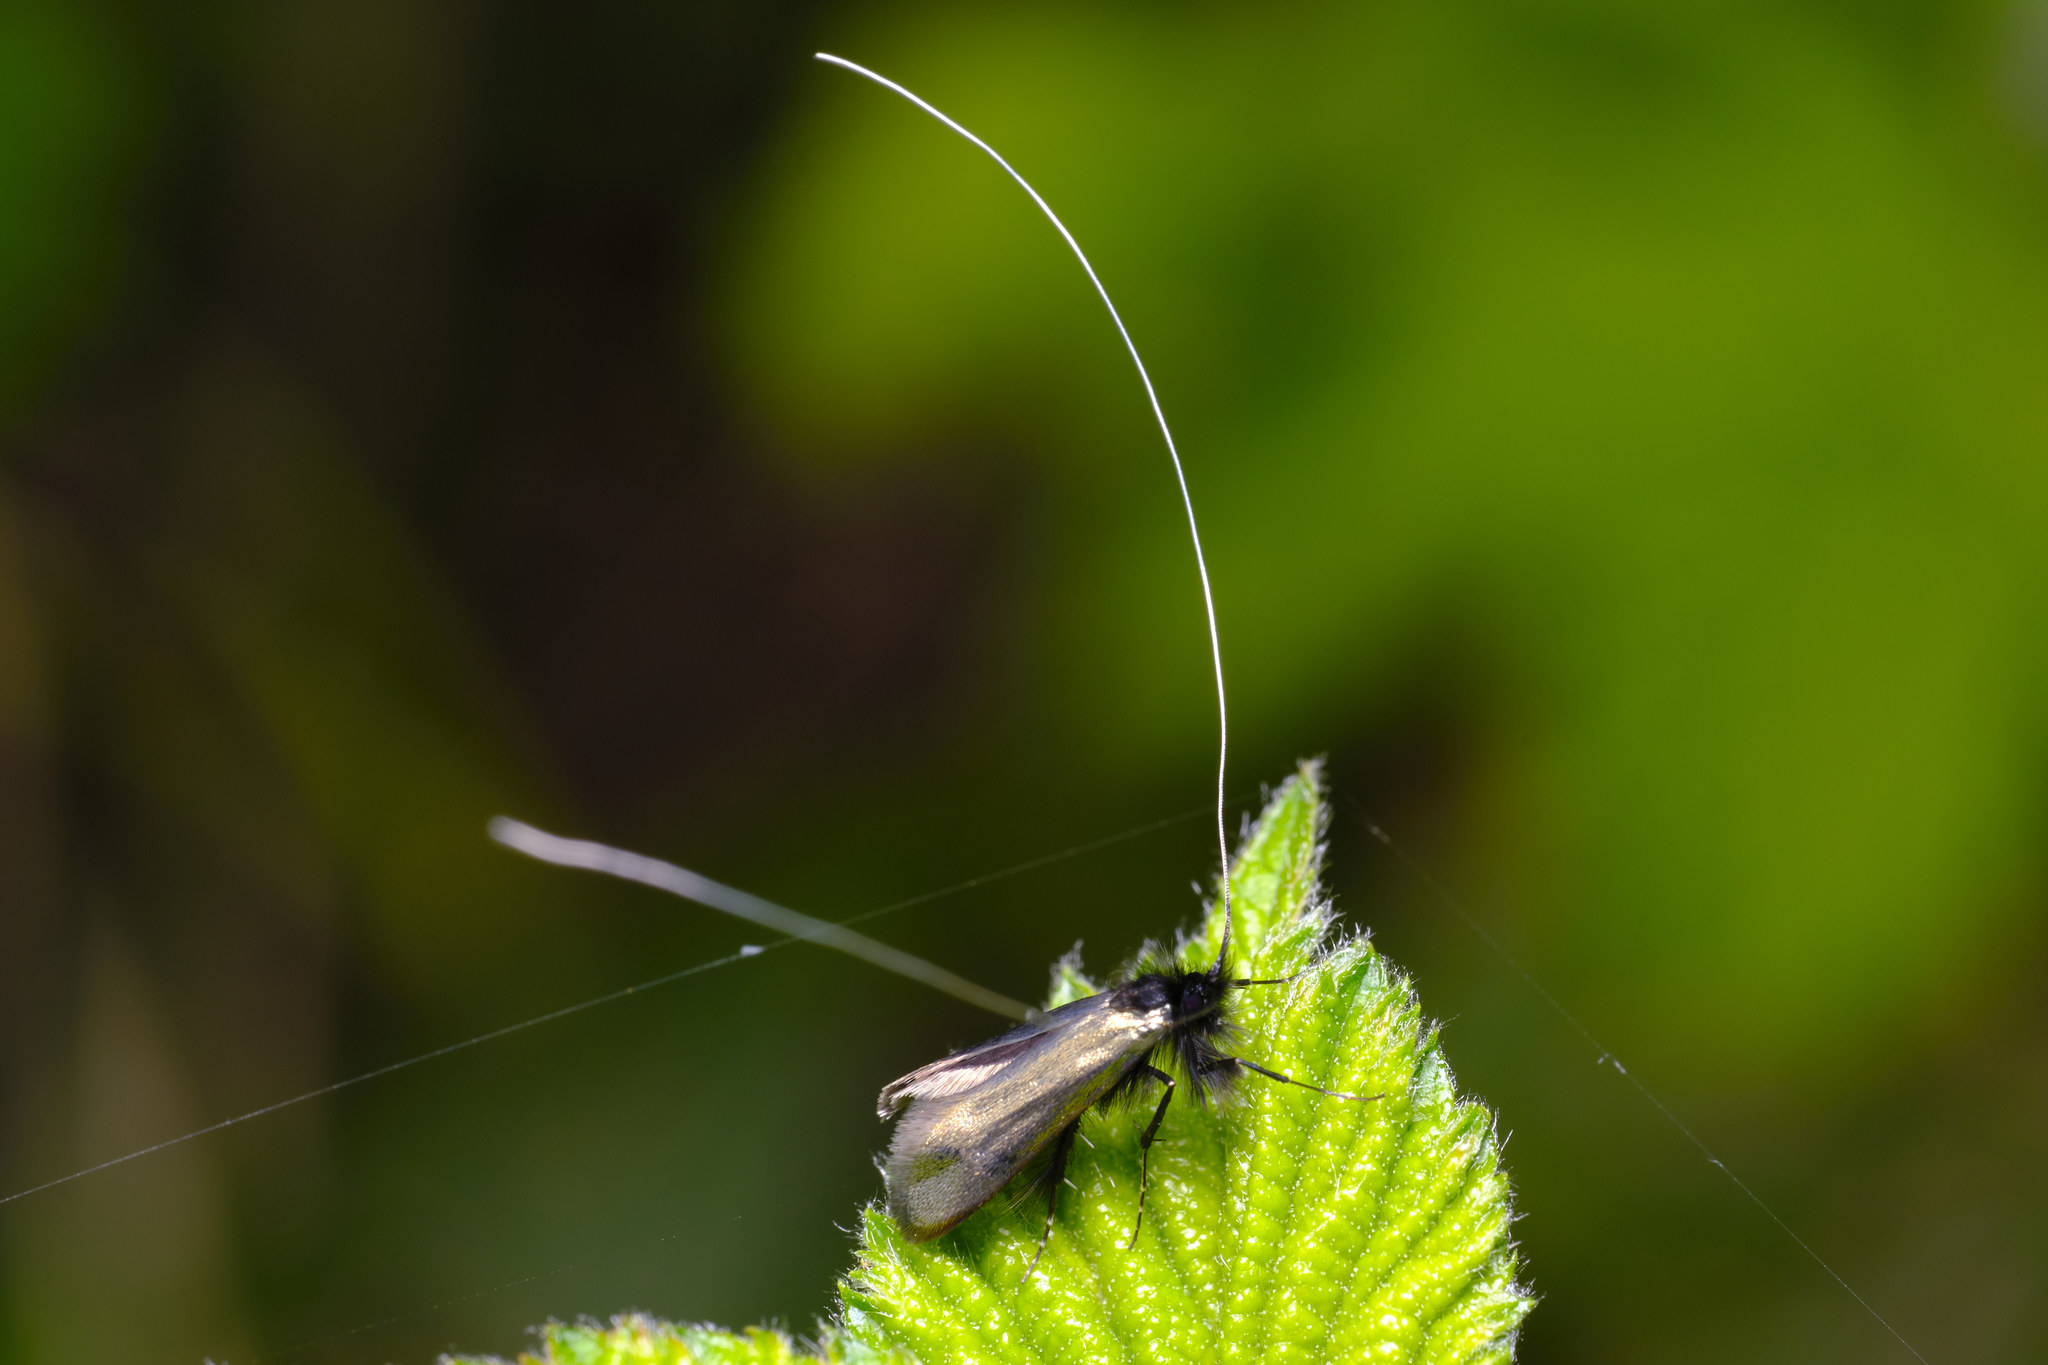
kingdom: Animalia
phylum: Arthropoda
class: Insecta
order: Lepidoptera
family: Adelidae
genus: Adela
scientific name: Adela viridella
